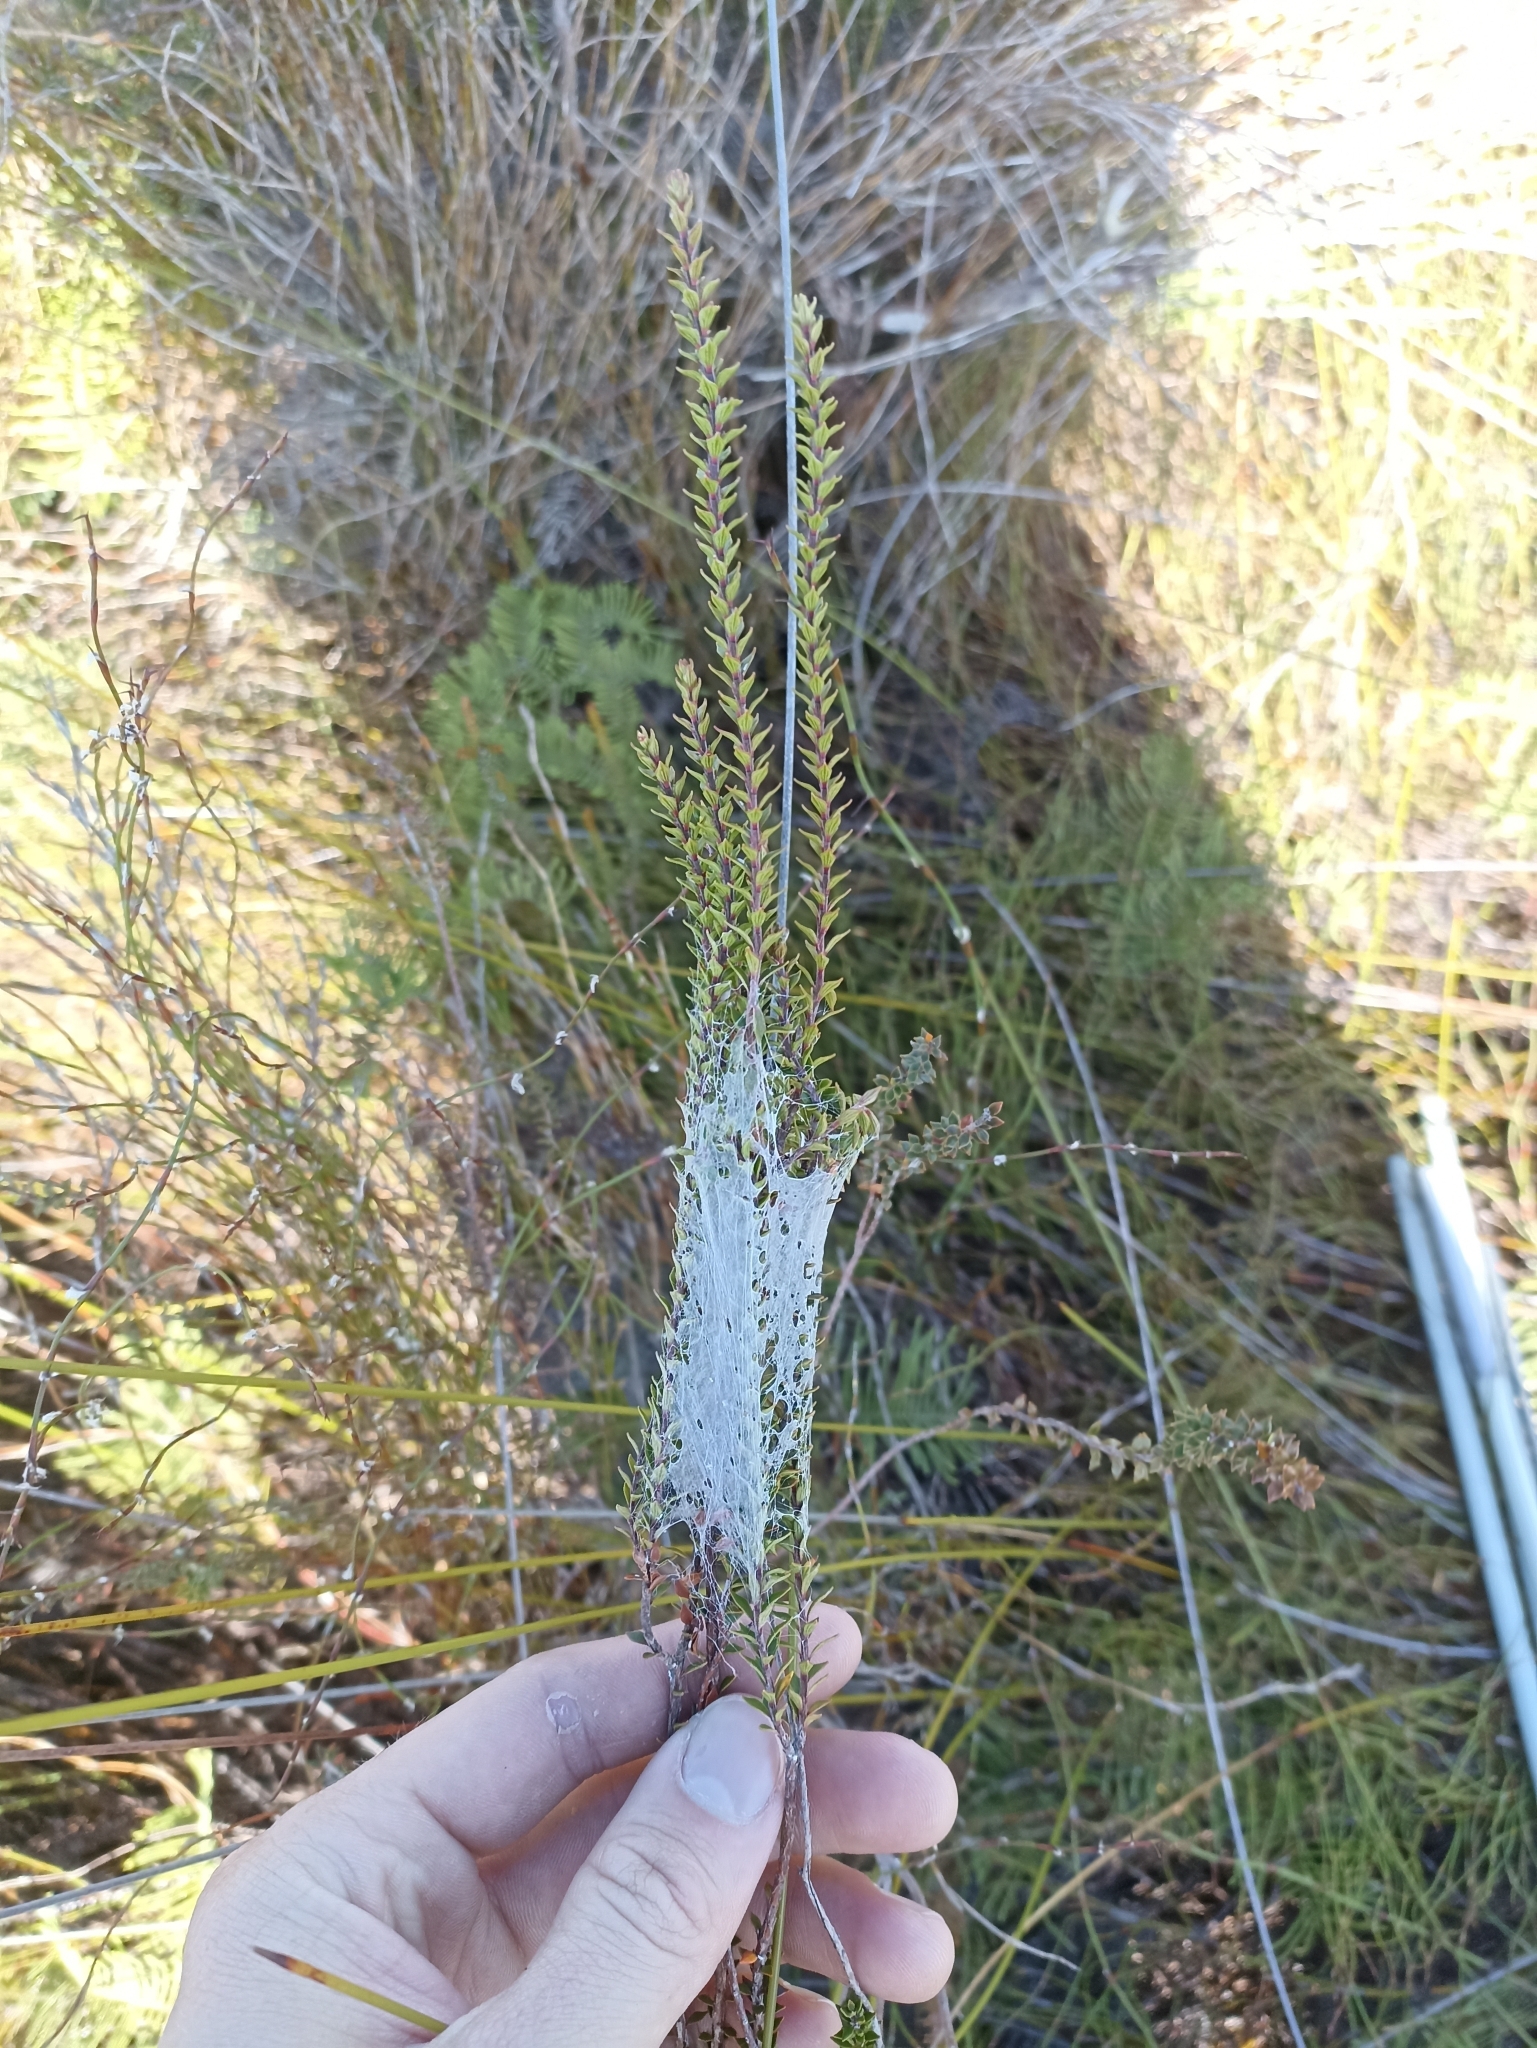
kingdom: Plantae
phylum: Tracheophyta
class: Magnoliopsida
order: Ericales
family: Ericaceae
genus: Epacris
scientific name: Epacris pauciflora
